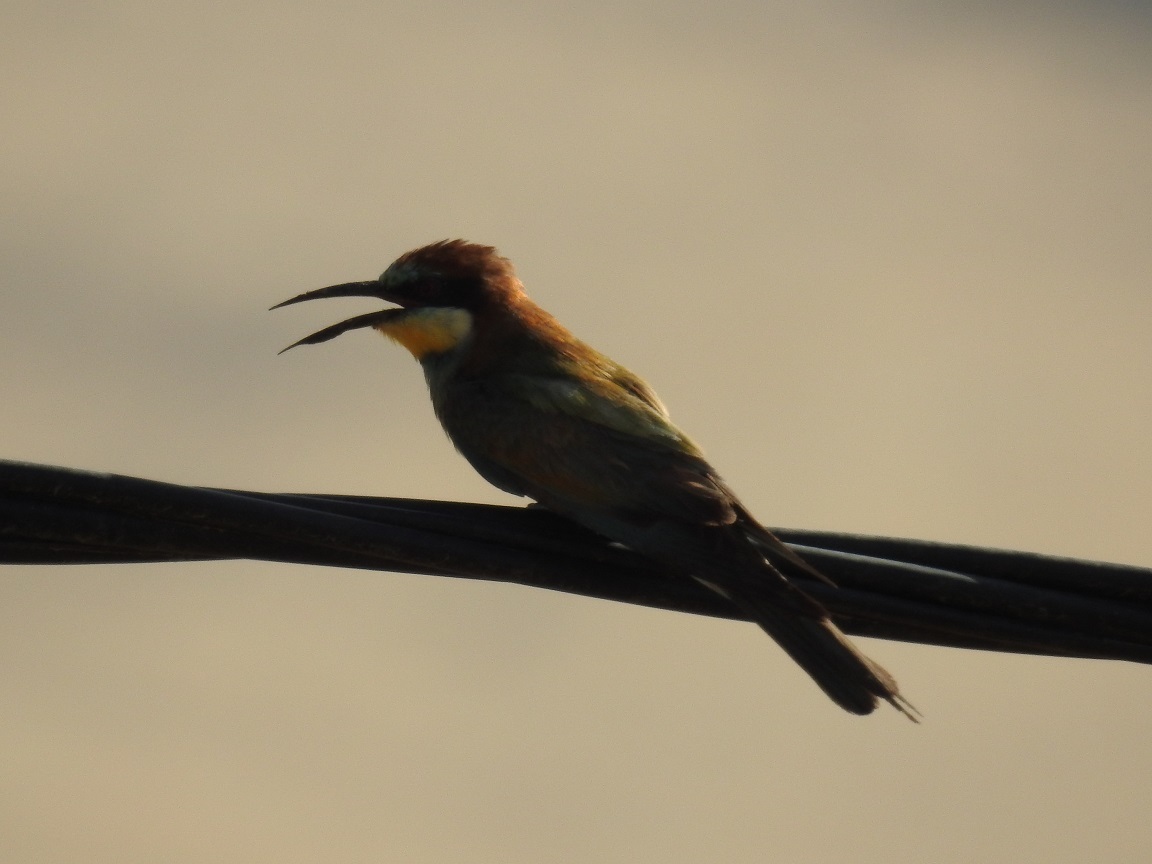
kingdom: Animalia
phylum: Chordata
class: Aves
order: Coraciiformes
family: Meropidae
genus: Merops
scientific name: Merops apiaster
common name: European bee-eater
